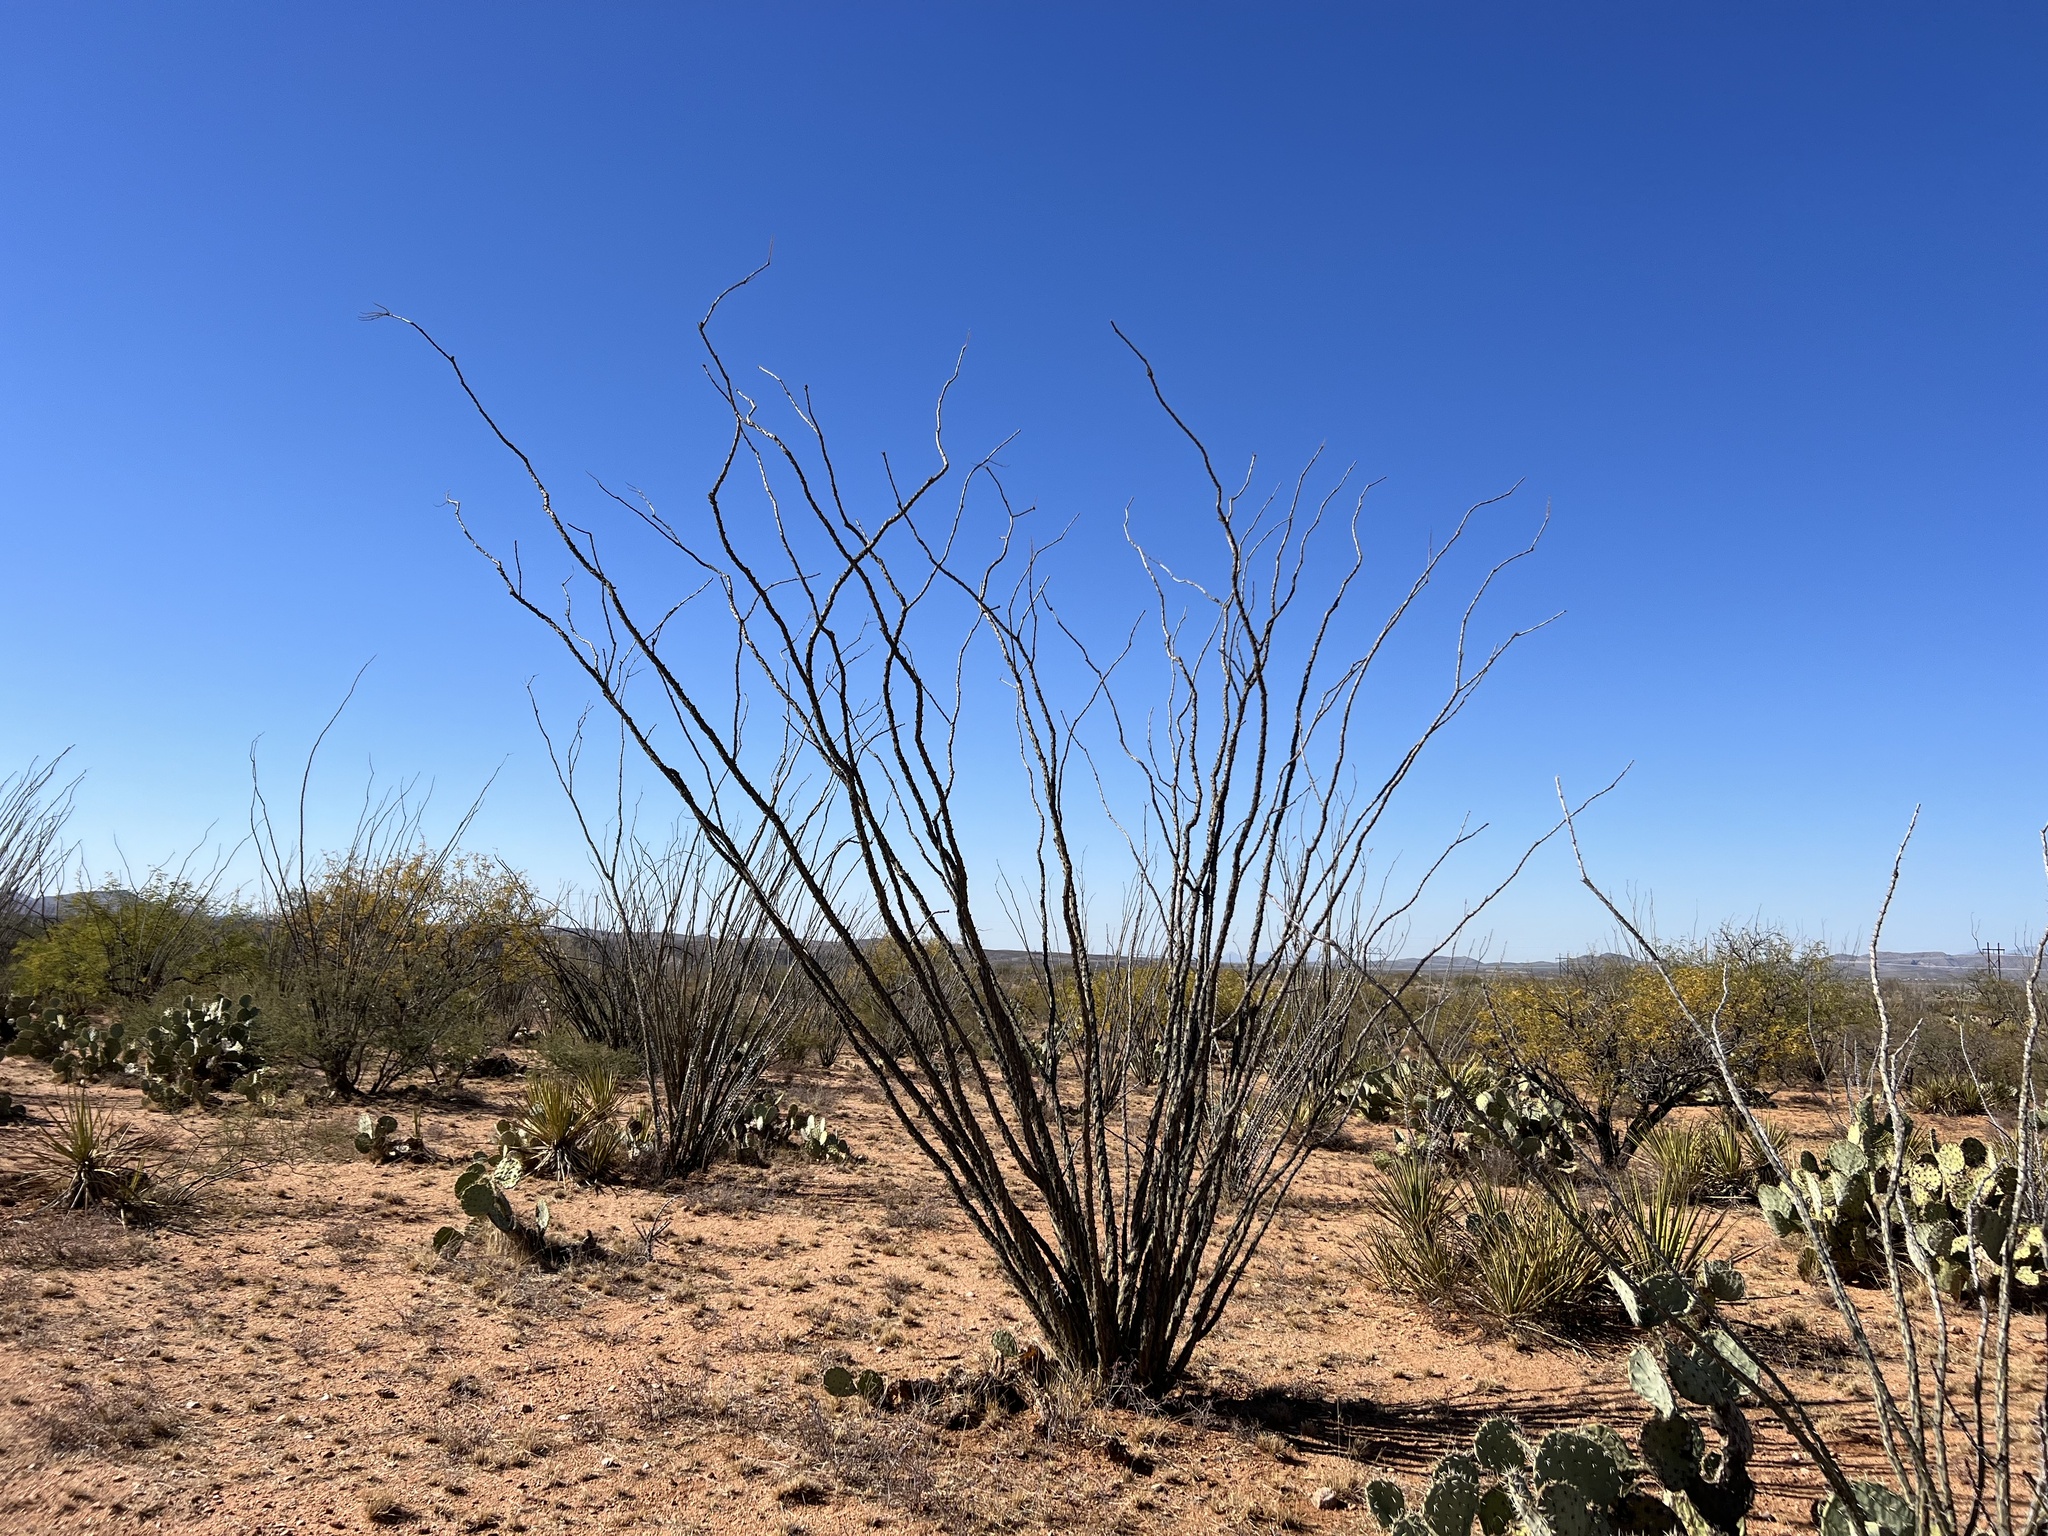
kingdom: Plantae
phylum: Tracheophyta
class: Magnoliopsida
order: Ericales
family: Fouquieriaceae
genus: Fouquieria
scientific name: Fouquieria splendens
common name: Vine-cactus
